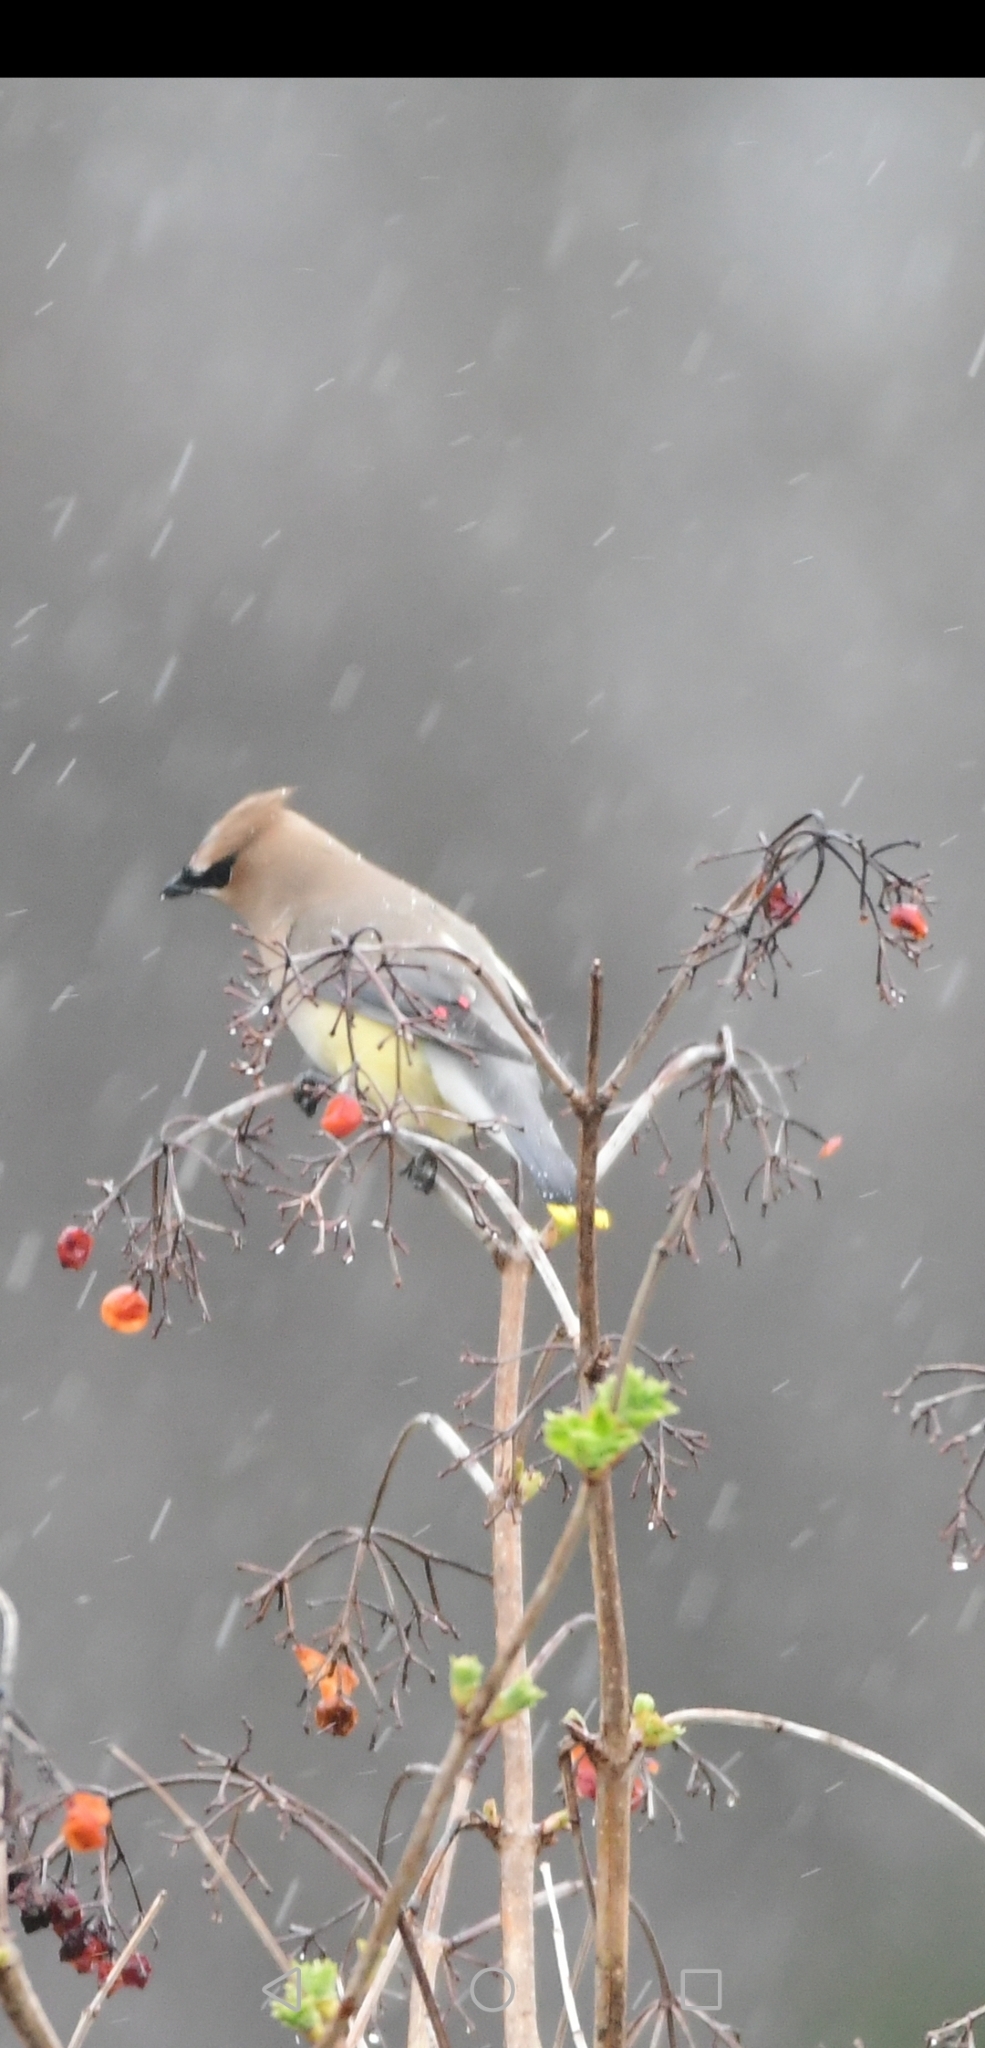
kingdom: Animalia
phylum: Chordata
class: Aves
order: Passeriformes
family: Bombycillidae
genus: Bombycilla
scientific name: Bombycilla cedrorum
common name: Cedar waxwing
